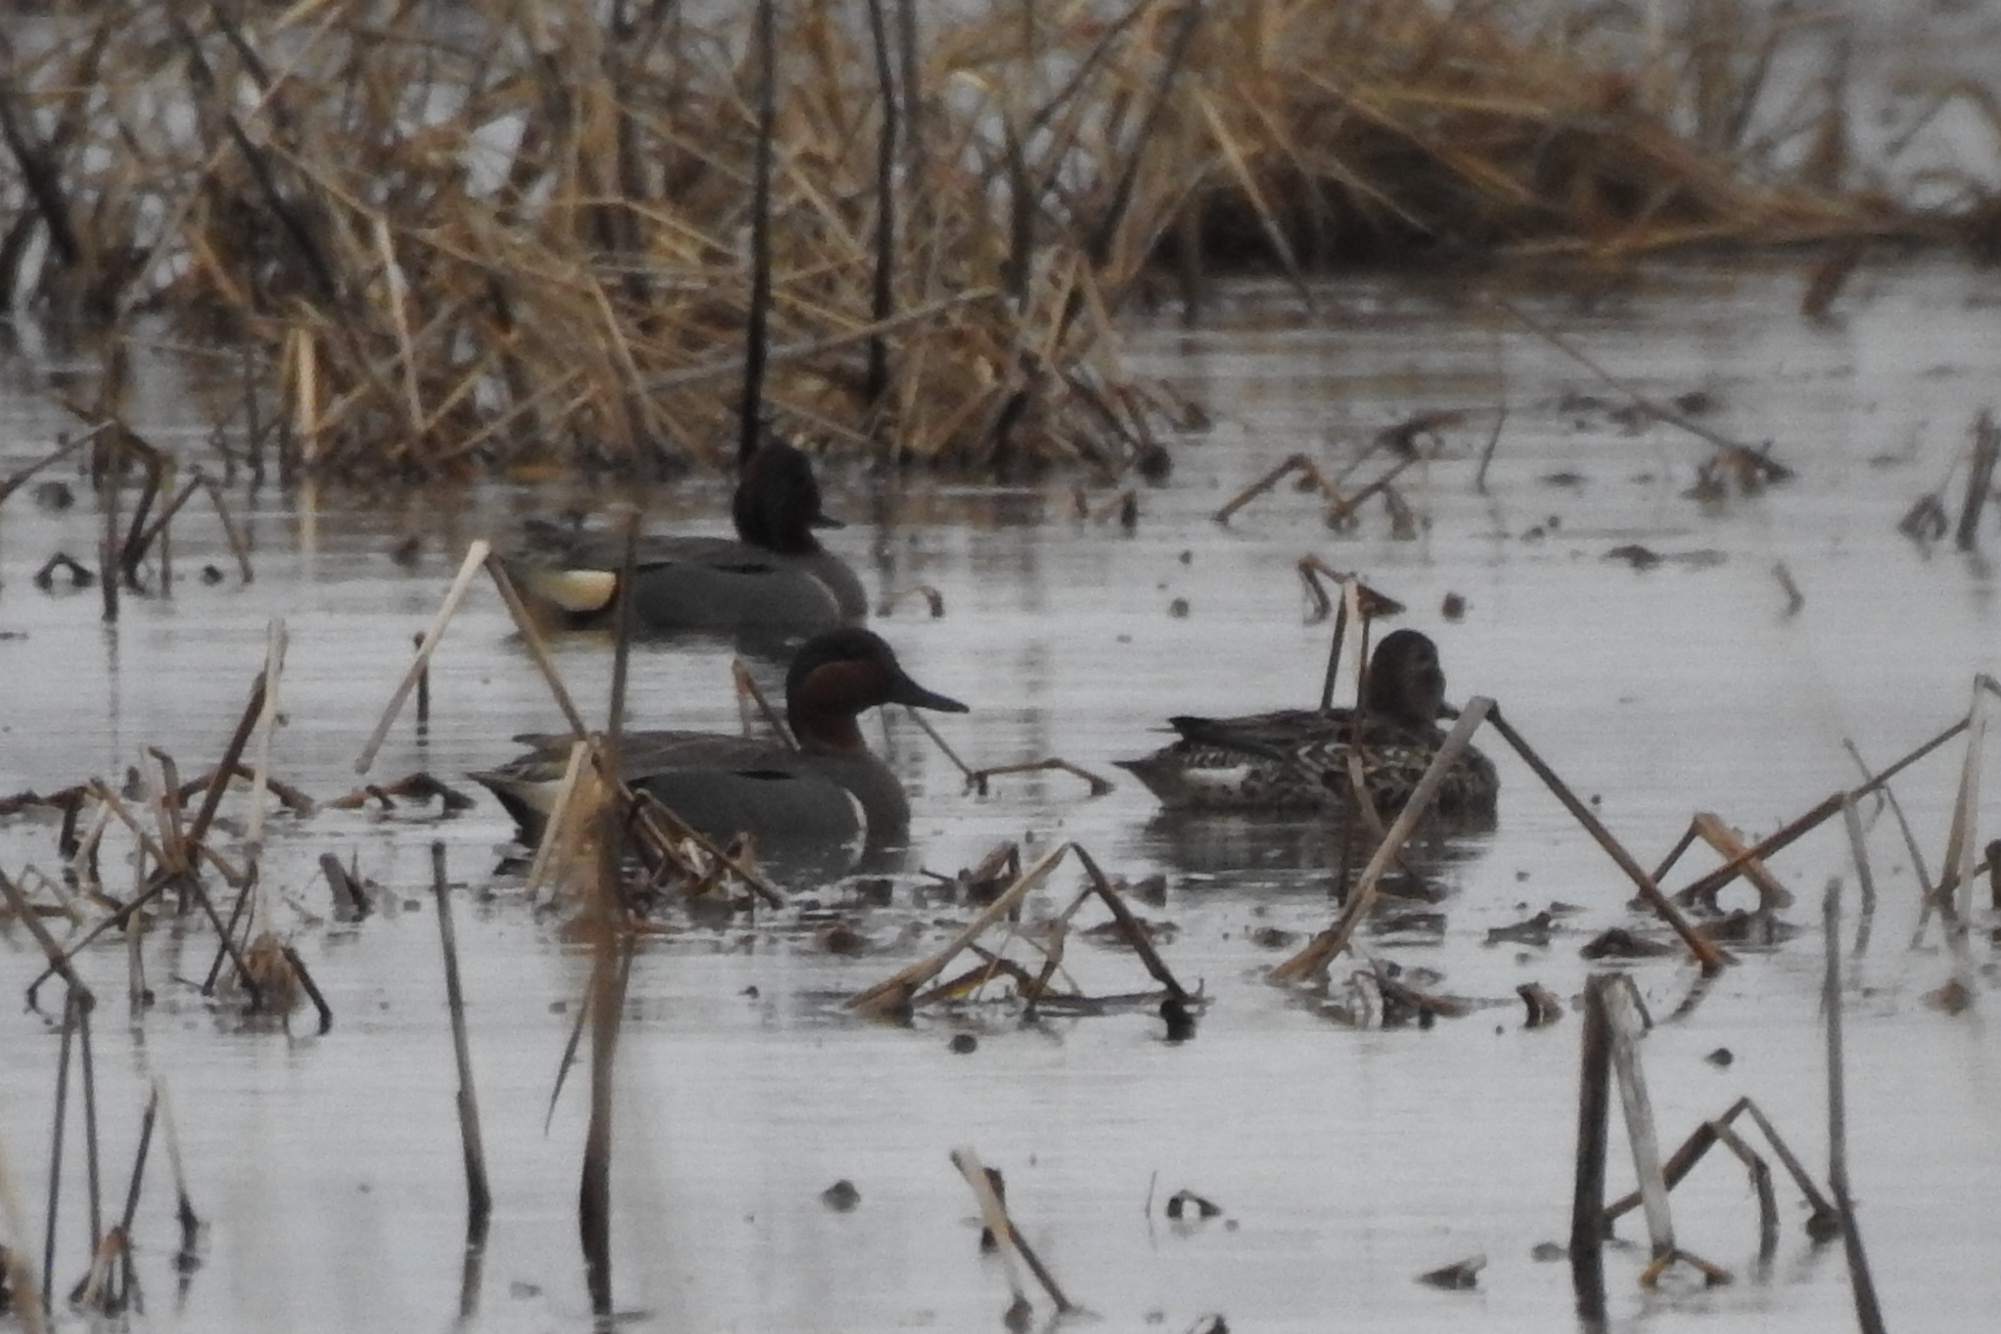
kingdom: Animalia
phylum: Chordata
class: Aves
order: Anseriformes
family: Anatidae
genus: Anas
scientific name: Anas crecca
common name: Eurasian teal
